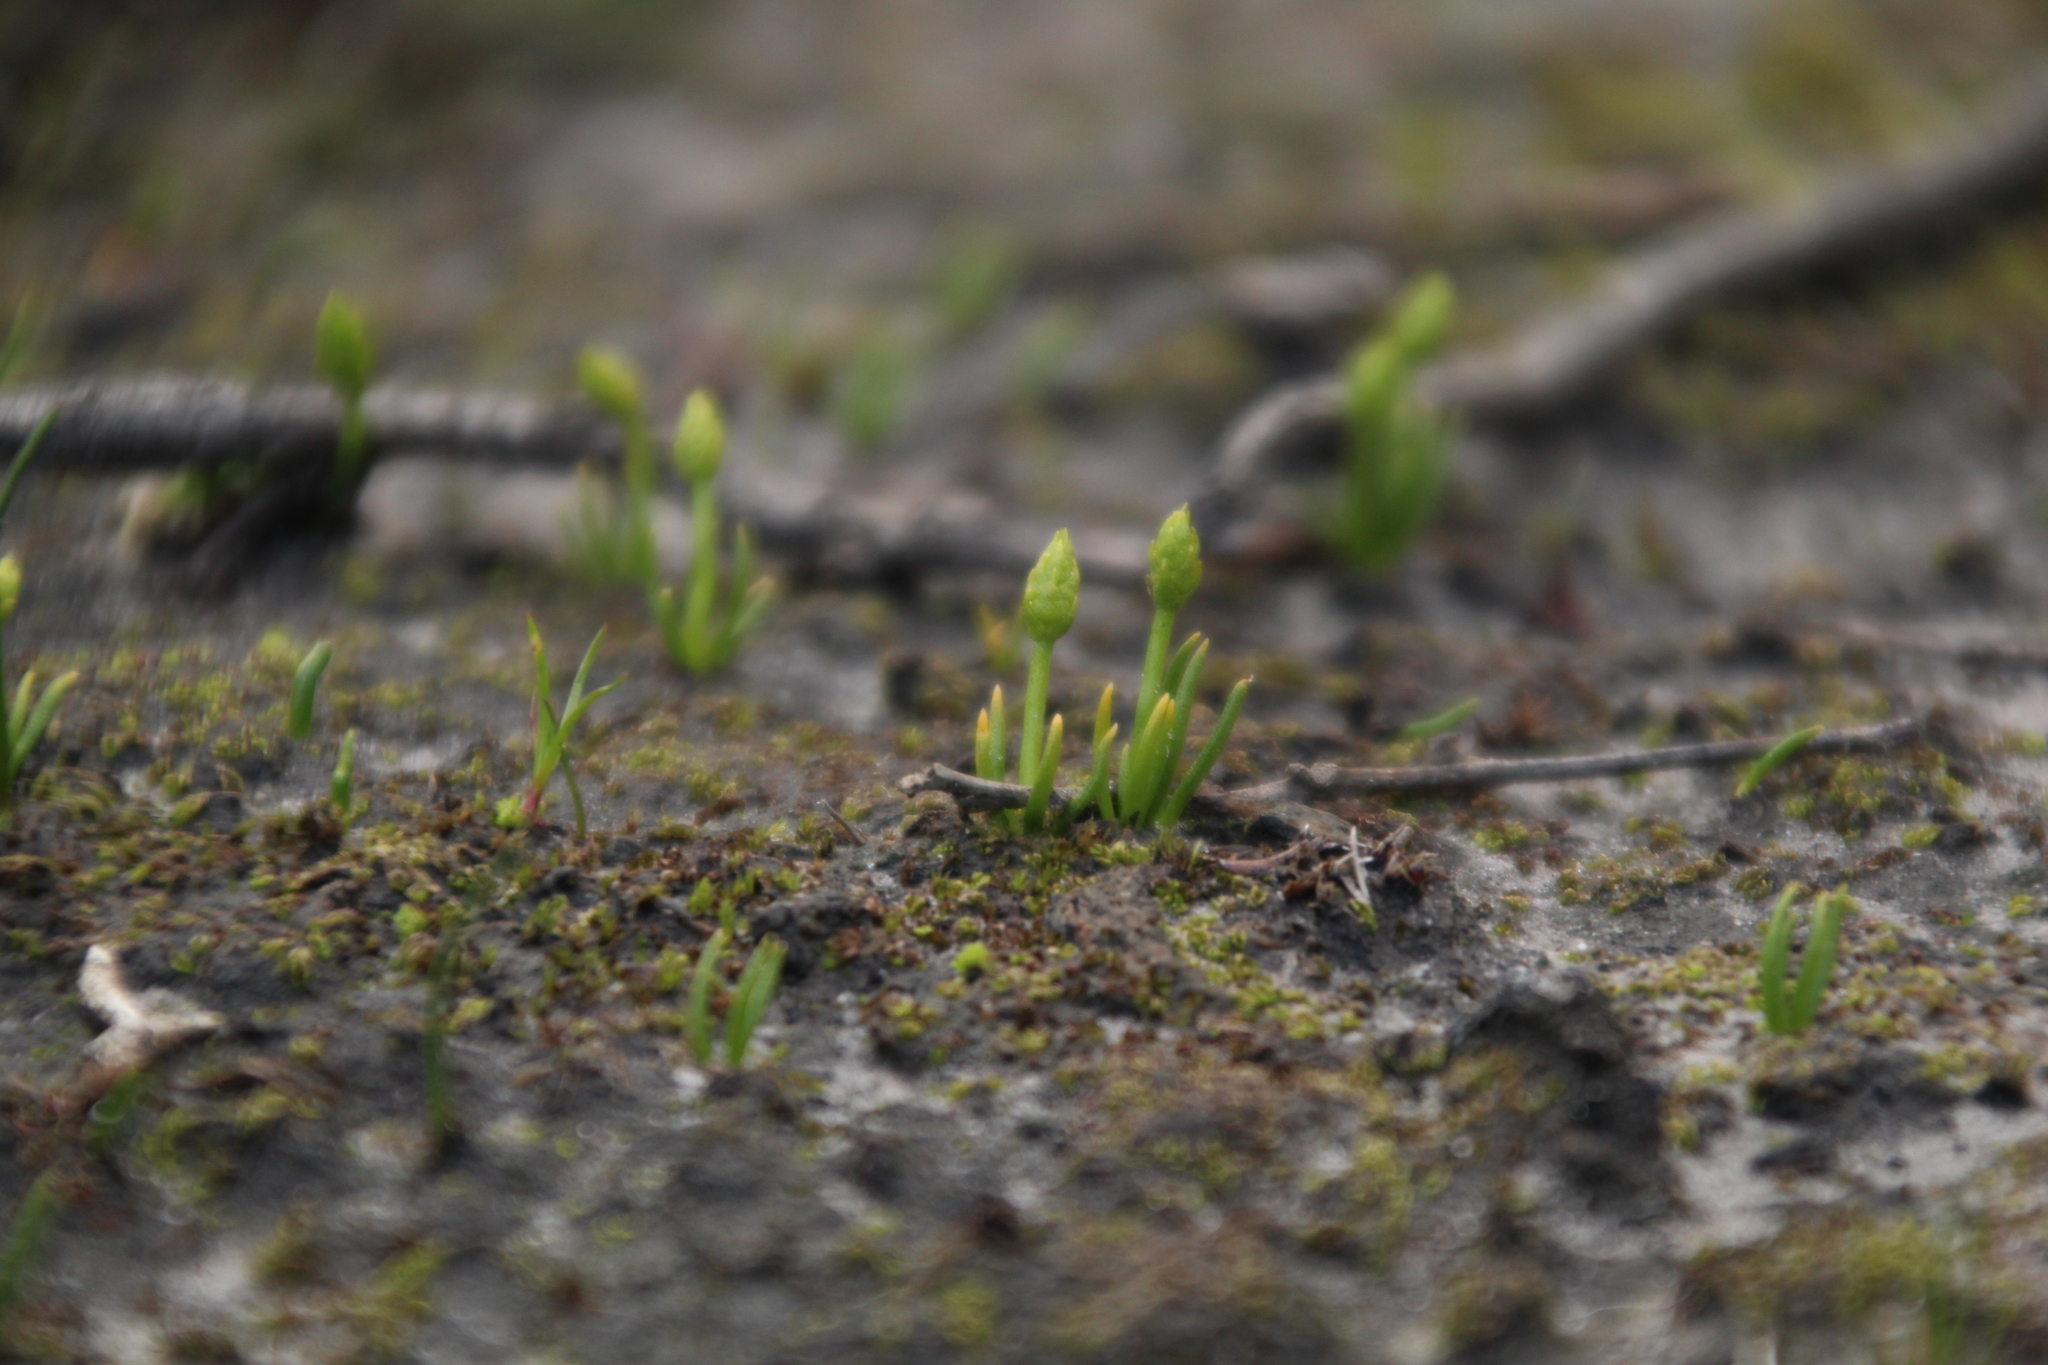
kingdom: Plantae
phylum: Tracheophyta
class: Lycopodiopsida
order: Lycopodiales
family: Lycopodiaceae
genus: Phylloglossum
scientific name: Phylloglossum drummondii
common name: Pigmy-club-moss
